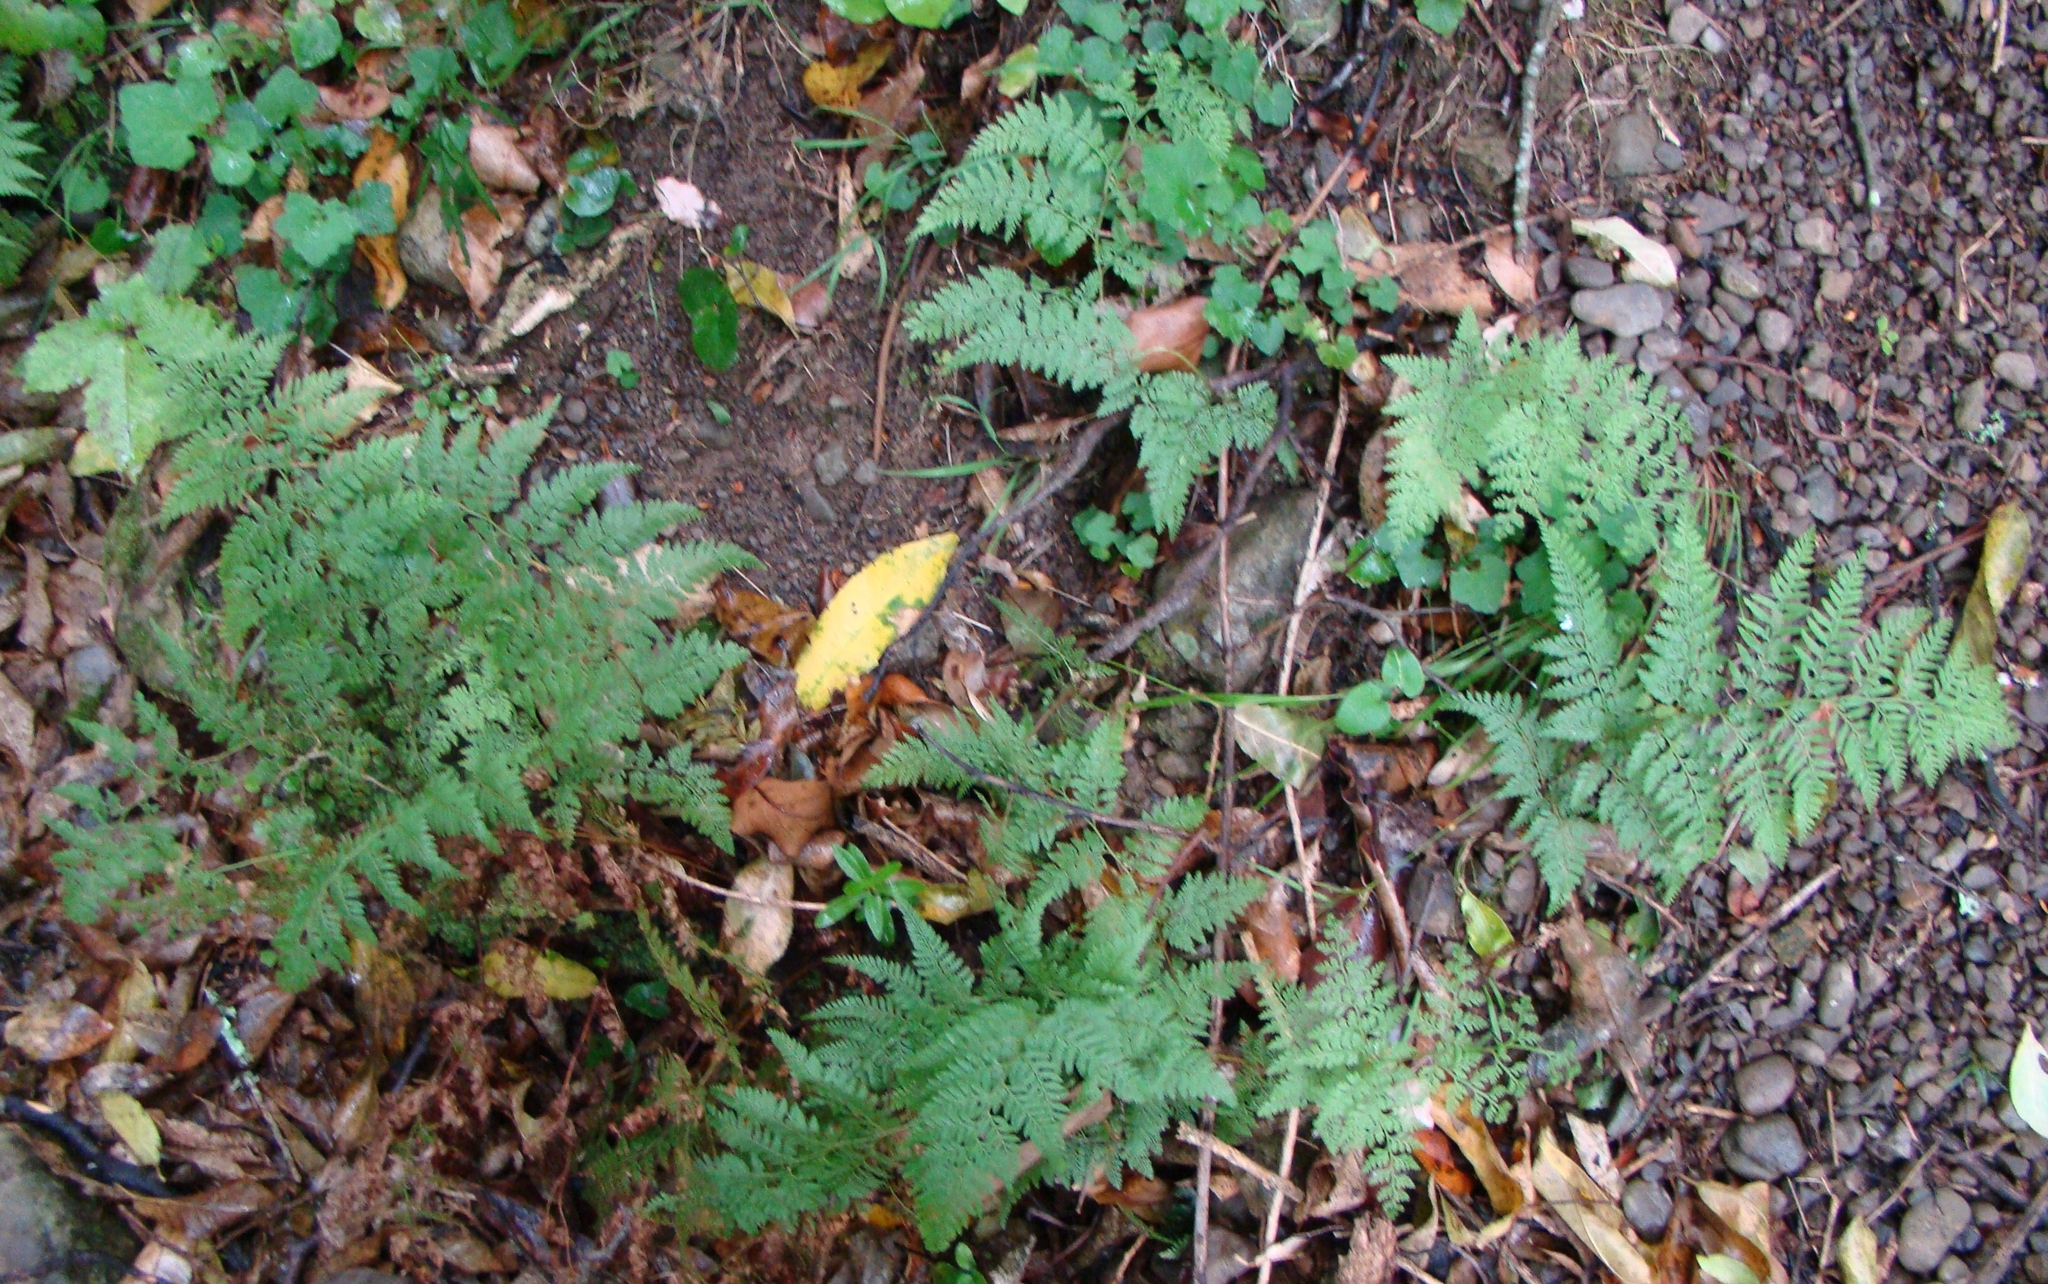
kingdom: Plantae
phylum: Tracheophyta
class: Polypodiopsida
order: Polypodiales
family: Dennstaedtiaceae
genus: Paesia
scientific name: Paesia scaberula
